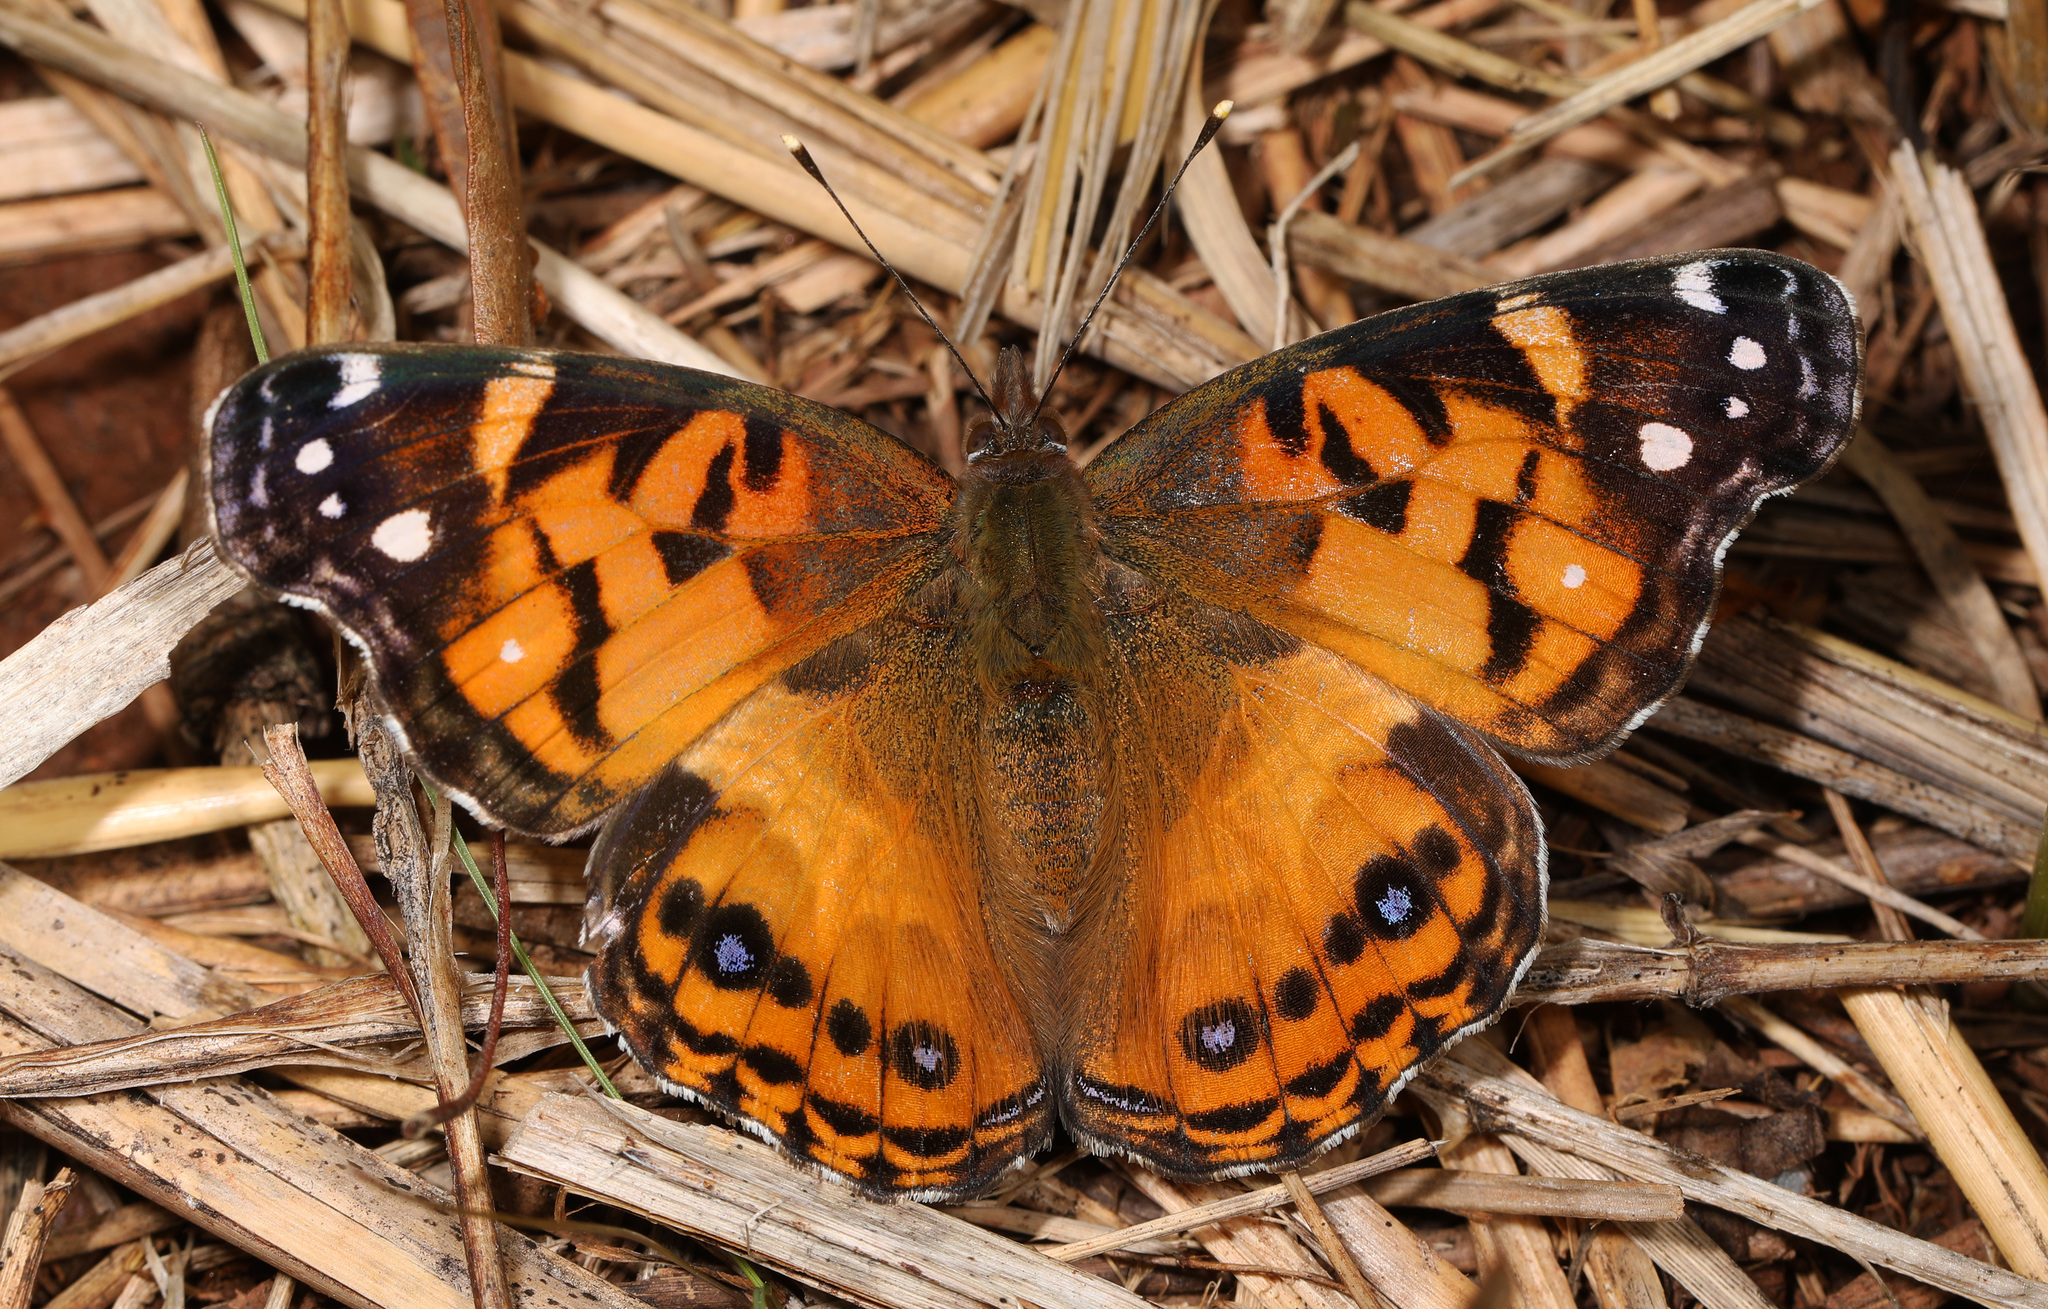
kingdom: Animalia
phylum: Arthropoda
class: Insecta
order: Lepidoptera
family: Nymphalidae
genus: Vanessa
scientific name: Vanessa virginiensis
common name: American lady
